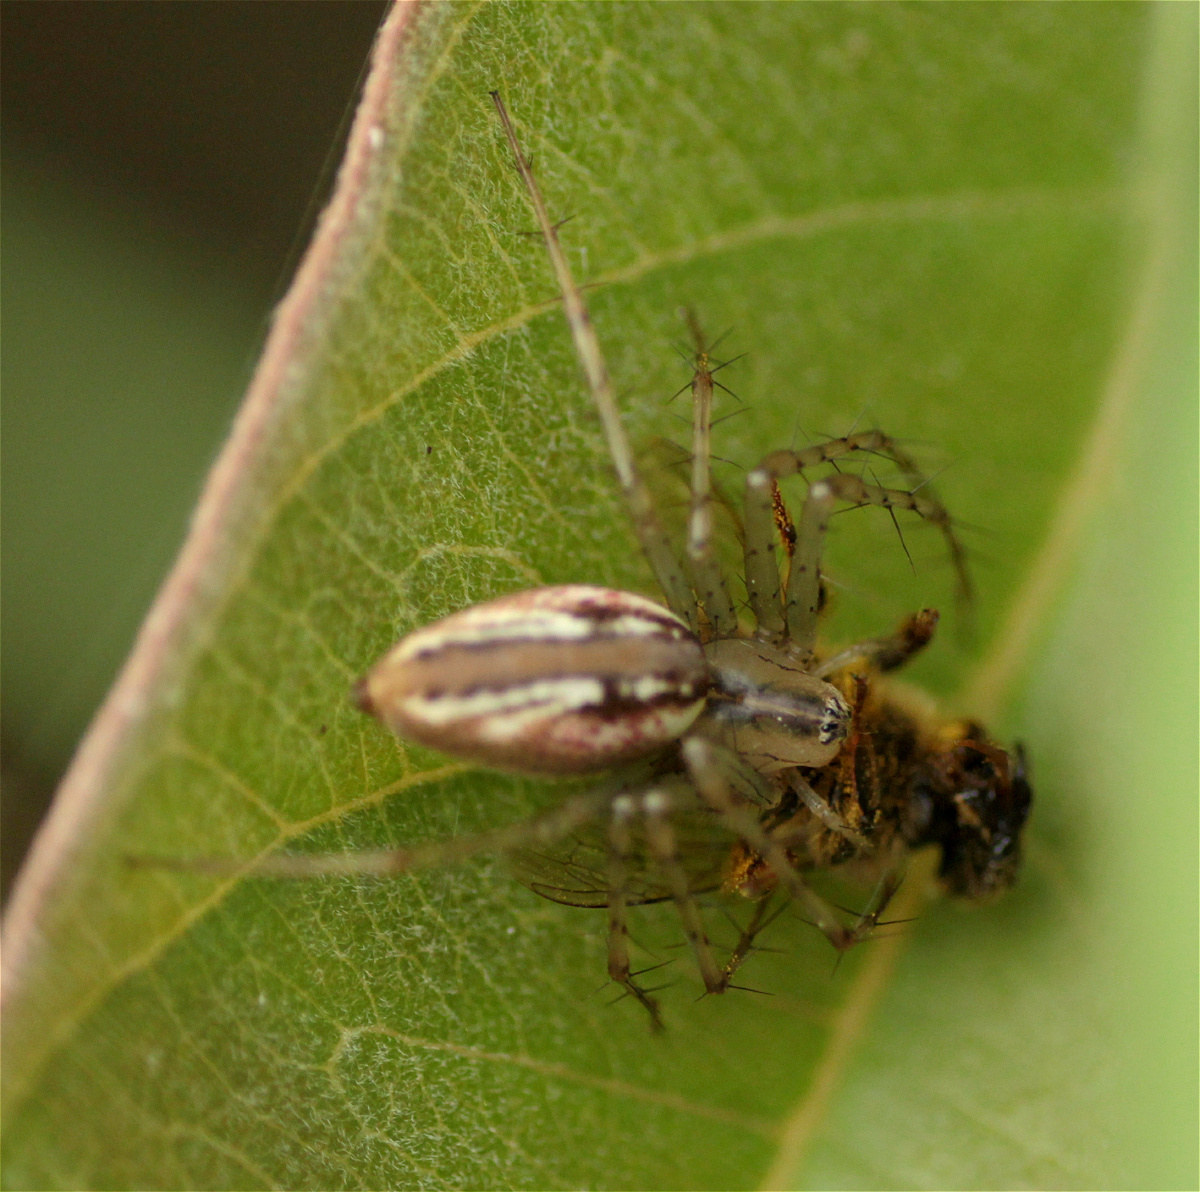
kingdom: Animalia
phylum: Arthropoda
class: Arachnida
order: Araneae
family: Oxyopidae
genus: Peucetia
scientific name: Peucetia rubrolineata
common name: Lynx spiders
